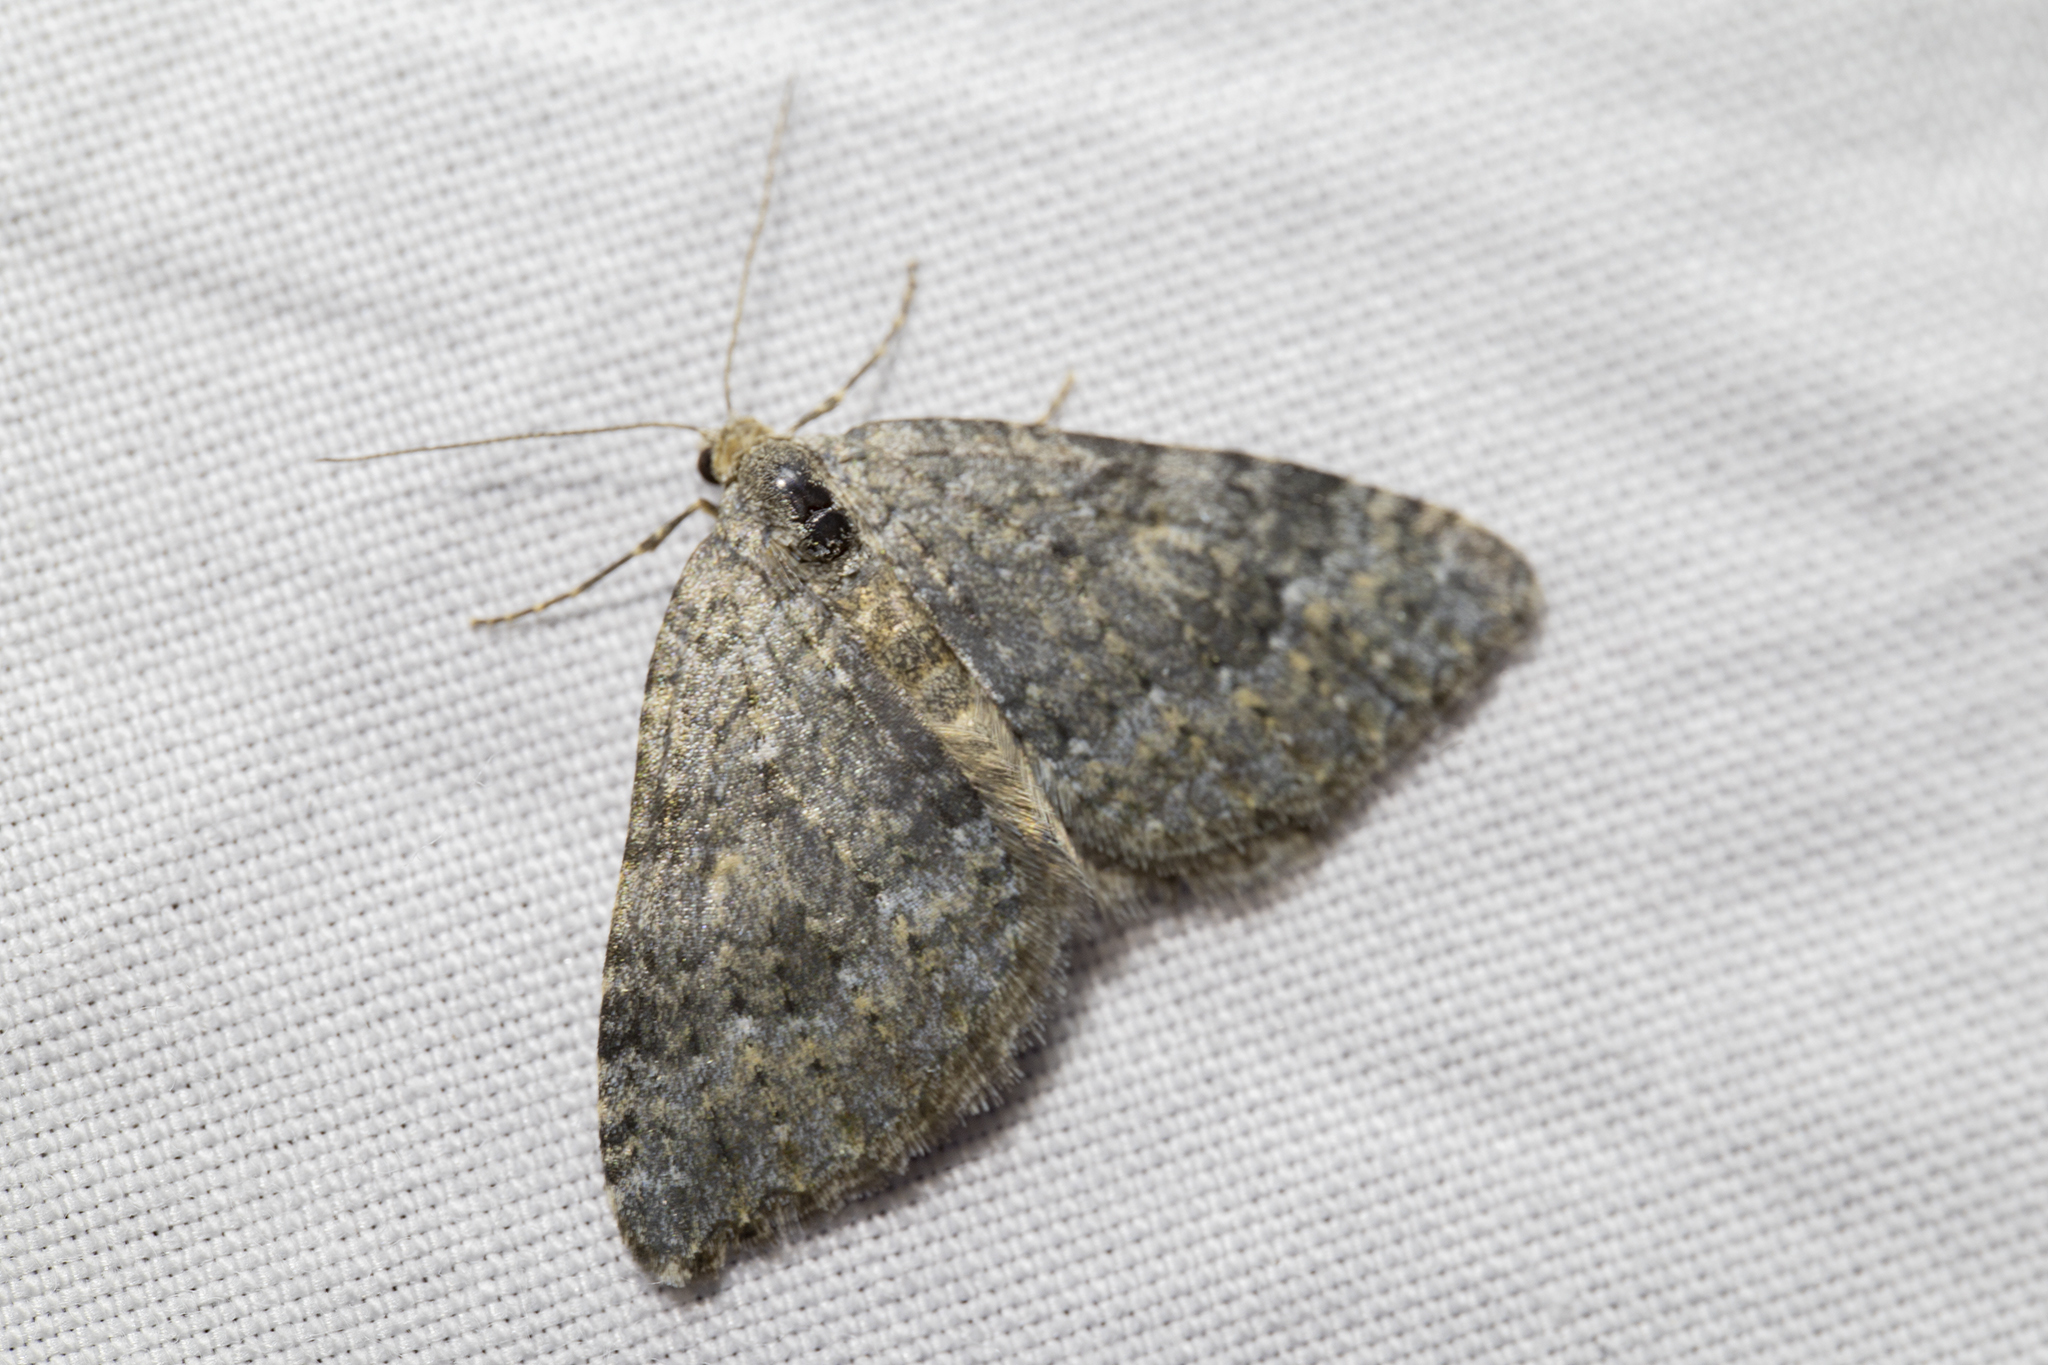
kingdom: Animalia
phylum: Arthropoda
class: Insecta
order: Lepidoptera
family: Geometridae
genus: Helastia
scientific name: Helastia corcularia
